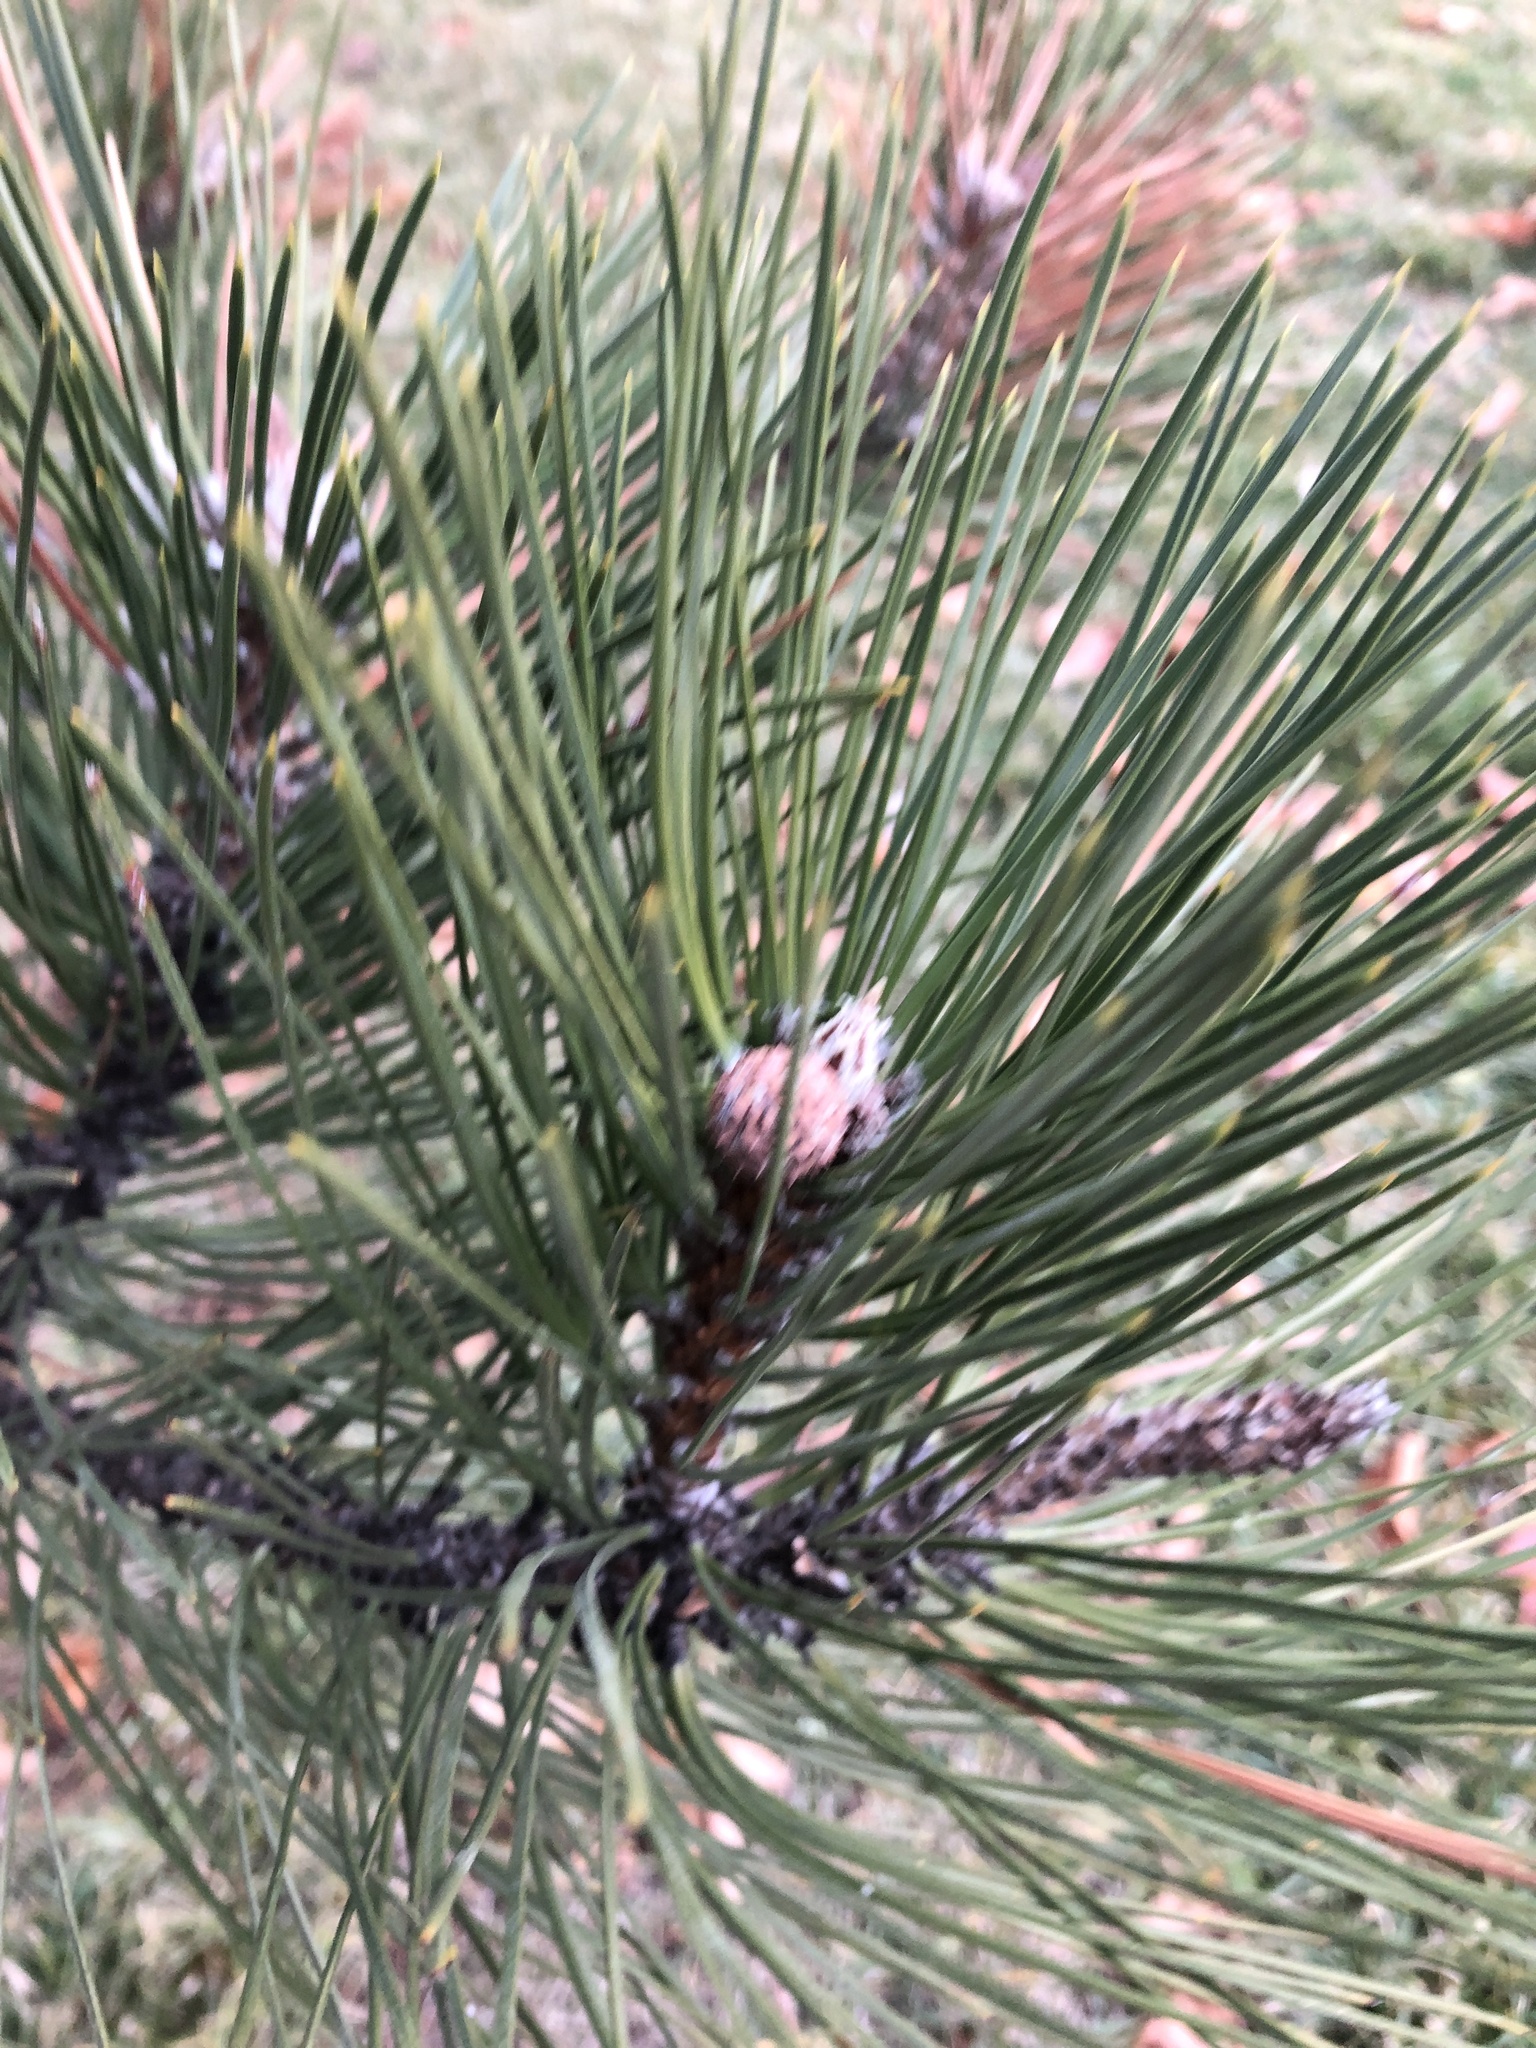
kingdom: Plantae
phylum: Tracheophyta
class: Pinopsida
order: Pinales
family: Pinaceae
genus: Pinus
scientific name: Pinus nigra
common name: Austrian pine
